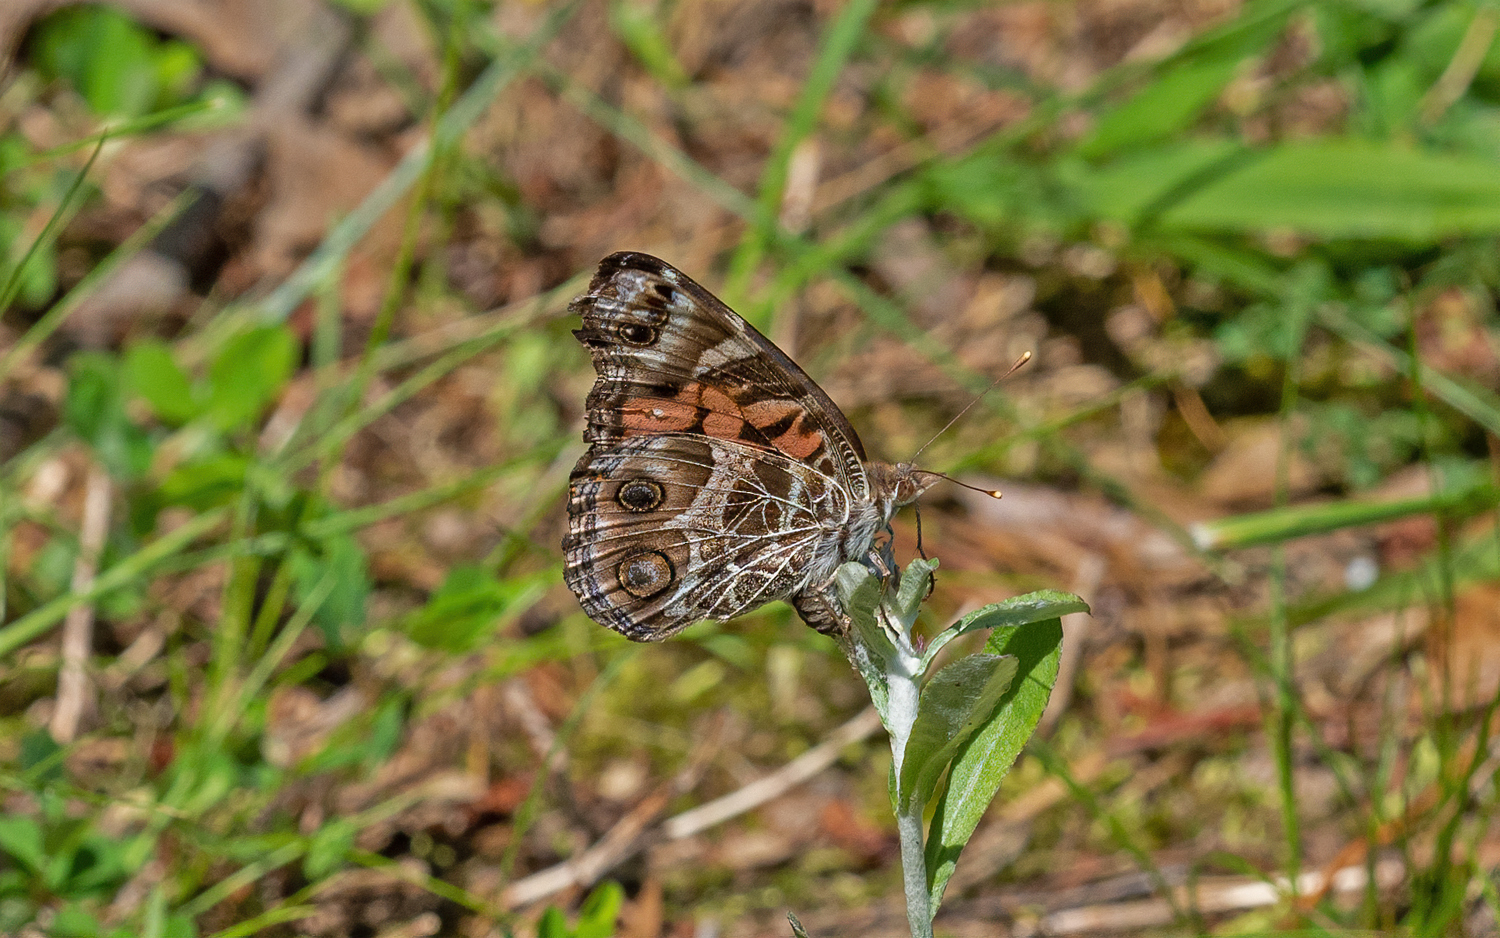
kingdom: Animalia
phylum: Arthropoda
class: Insecta
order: Lepidoptera
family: Nymphalidae
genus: Vanessa
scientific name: Vanessa virginiensis
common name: American lady
